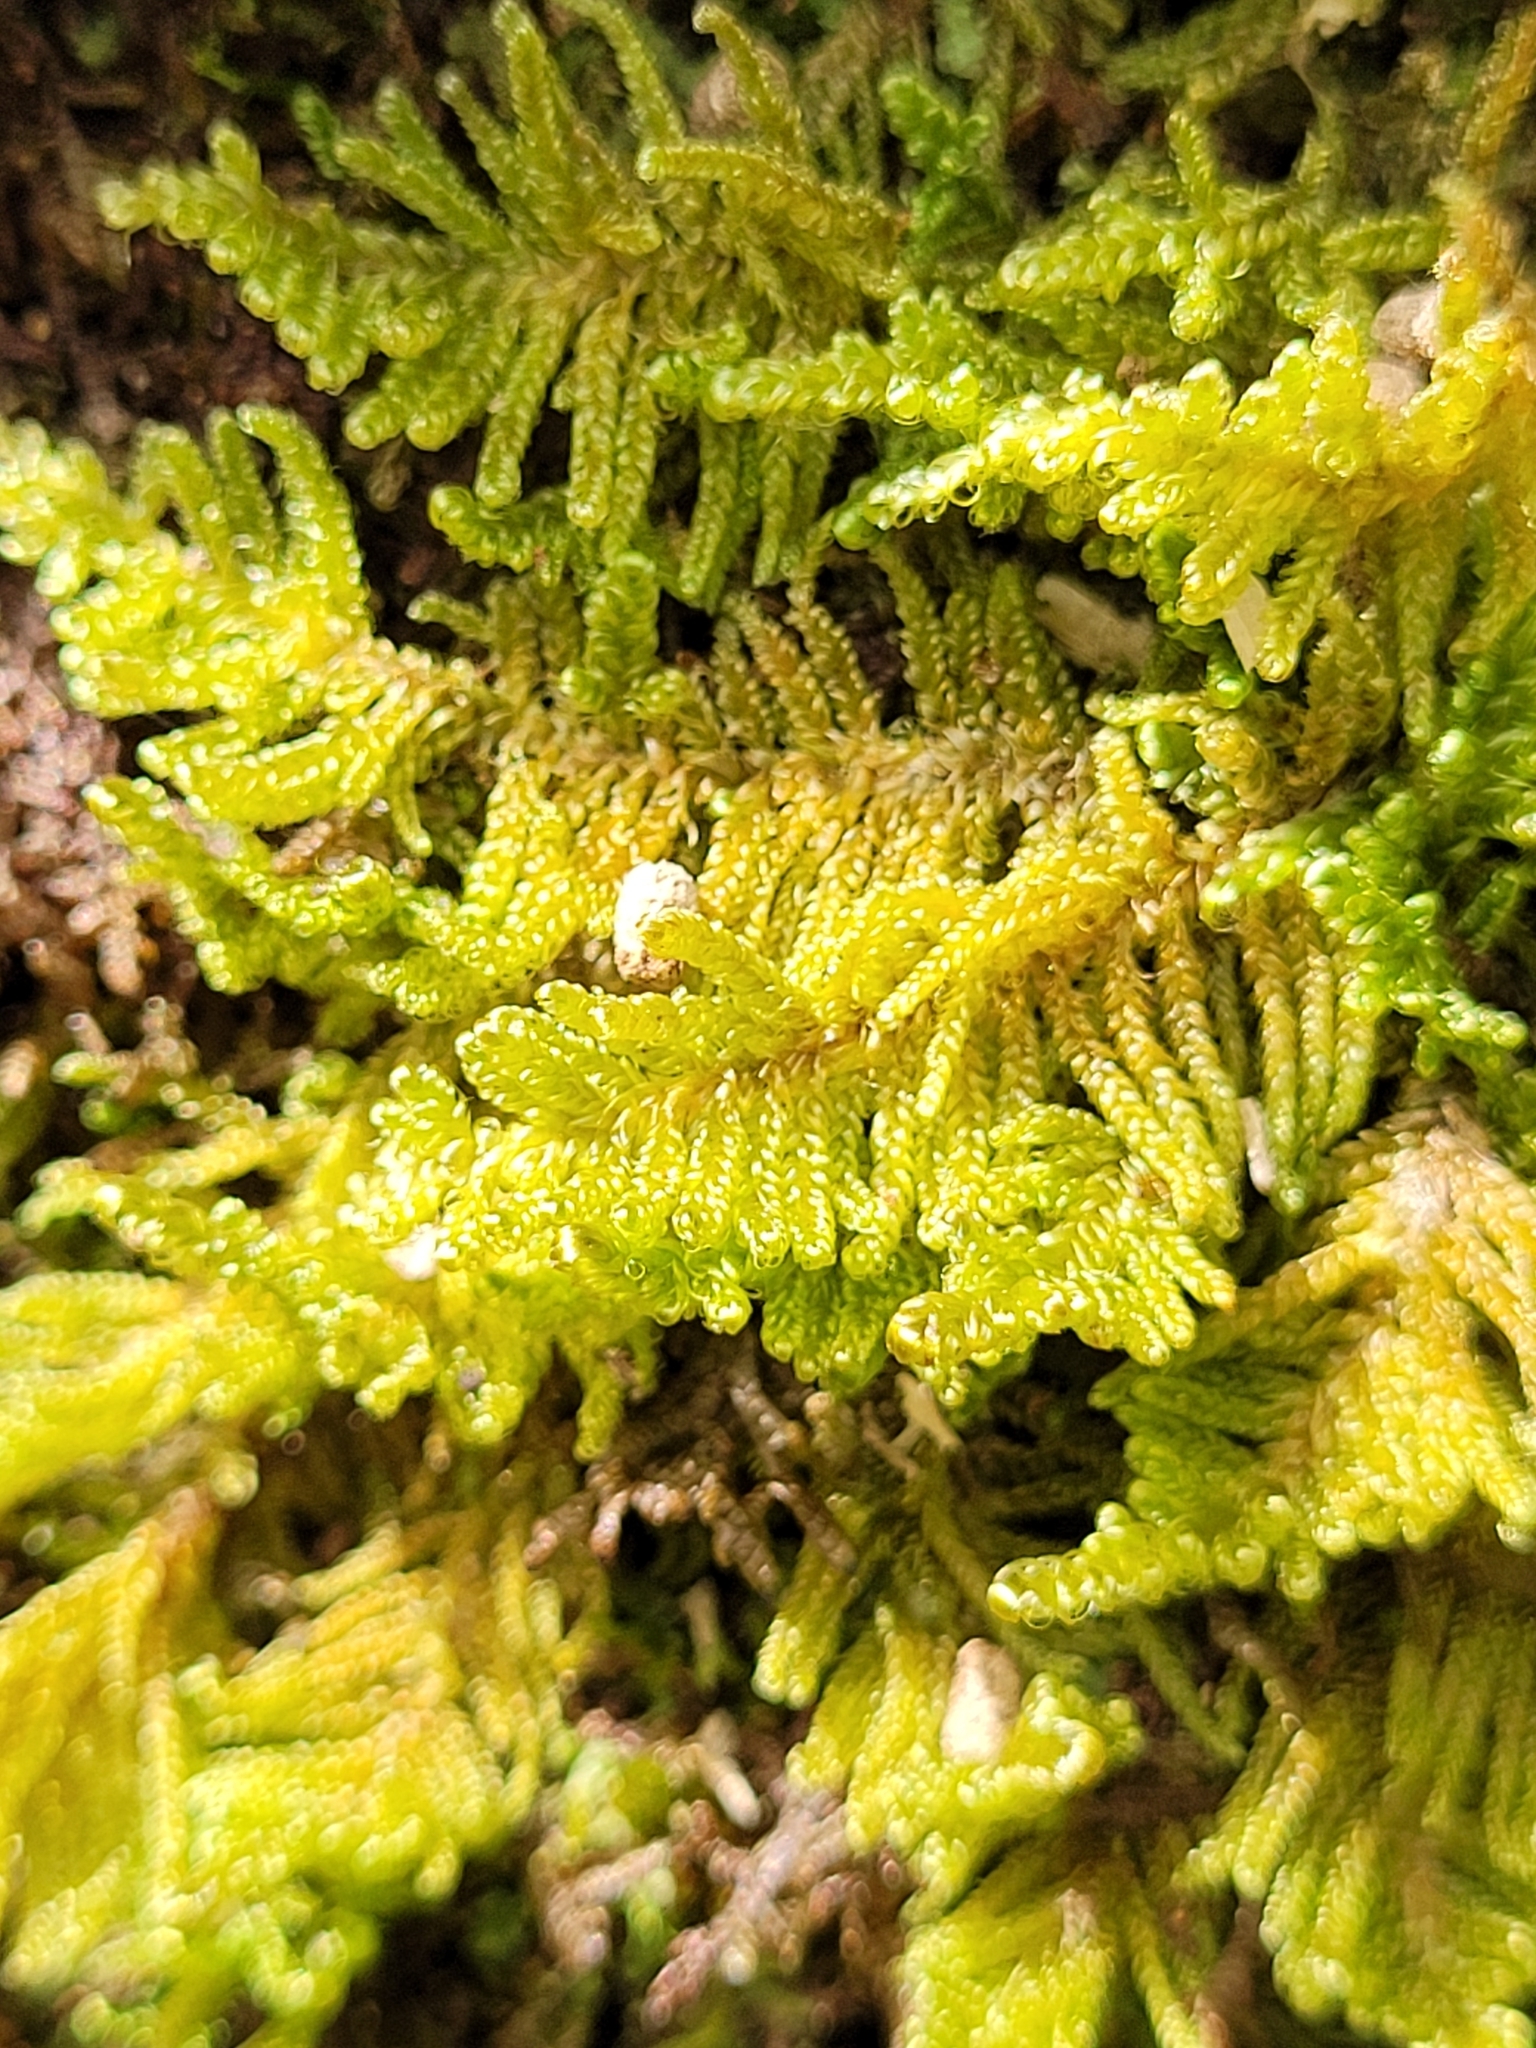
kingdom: Plantae
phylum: Bryophyta
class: Bryopsida
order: Hypnales
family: Callicladiaceae
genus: Callicladium
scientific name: Callicladium imponens
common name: Brocade moss
